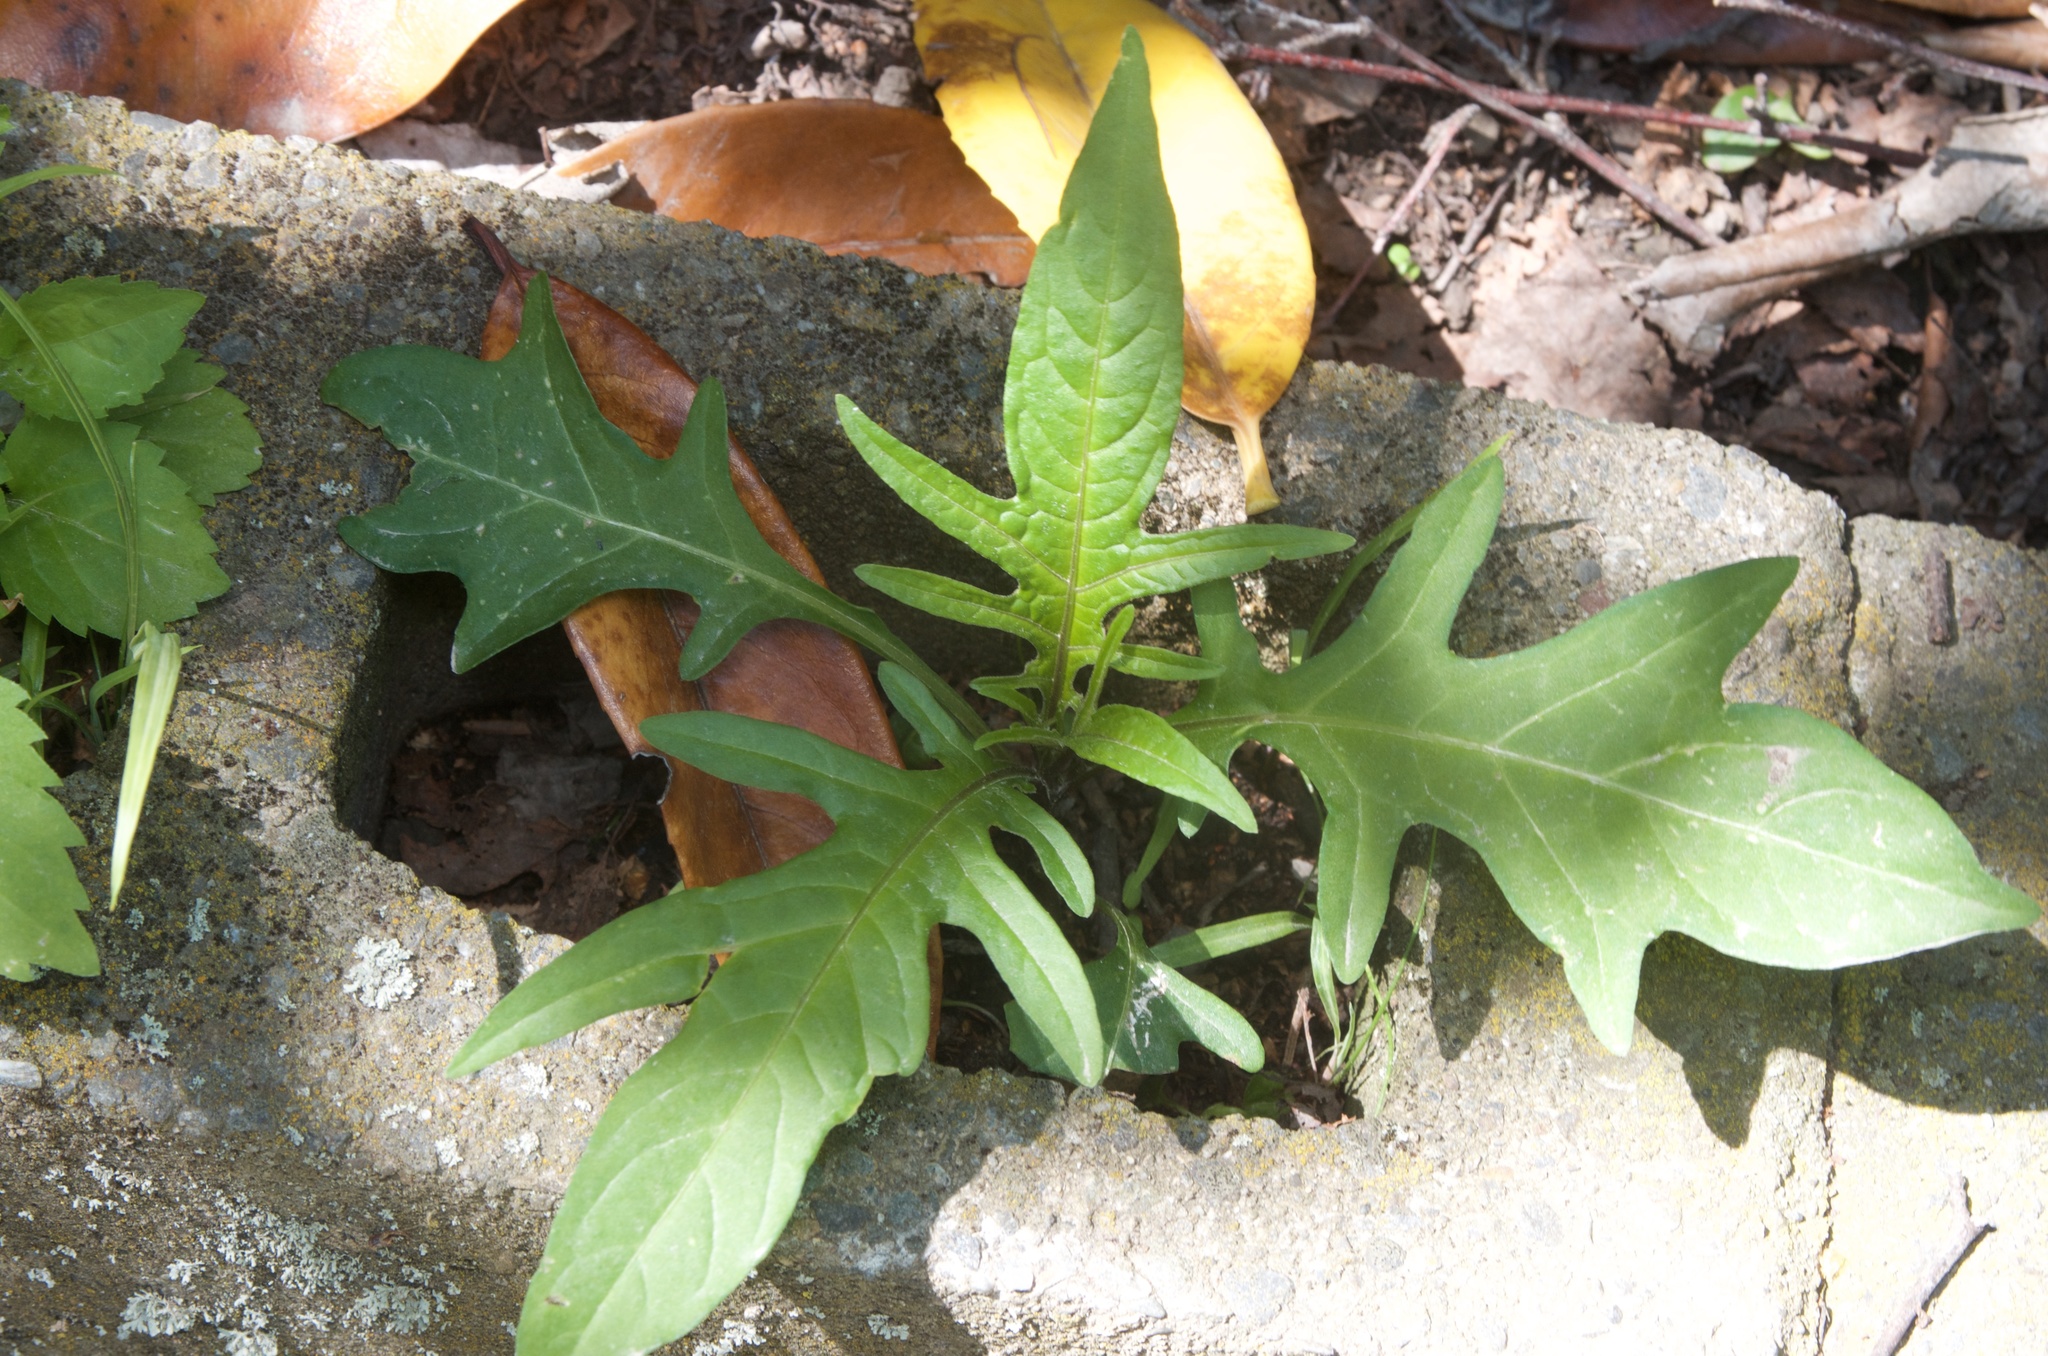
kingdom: Plantae
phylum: Tracheophyta
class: Magnoliopsida
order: Solanales
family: Solanaceae
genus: Solanum
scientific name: Solanum laciniatum
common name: Kangaroo-apple
